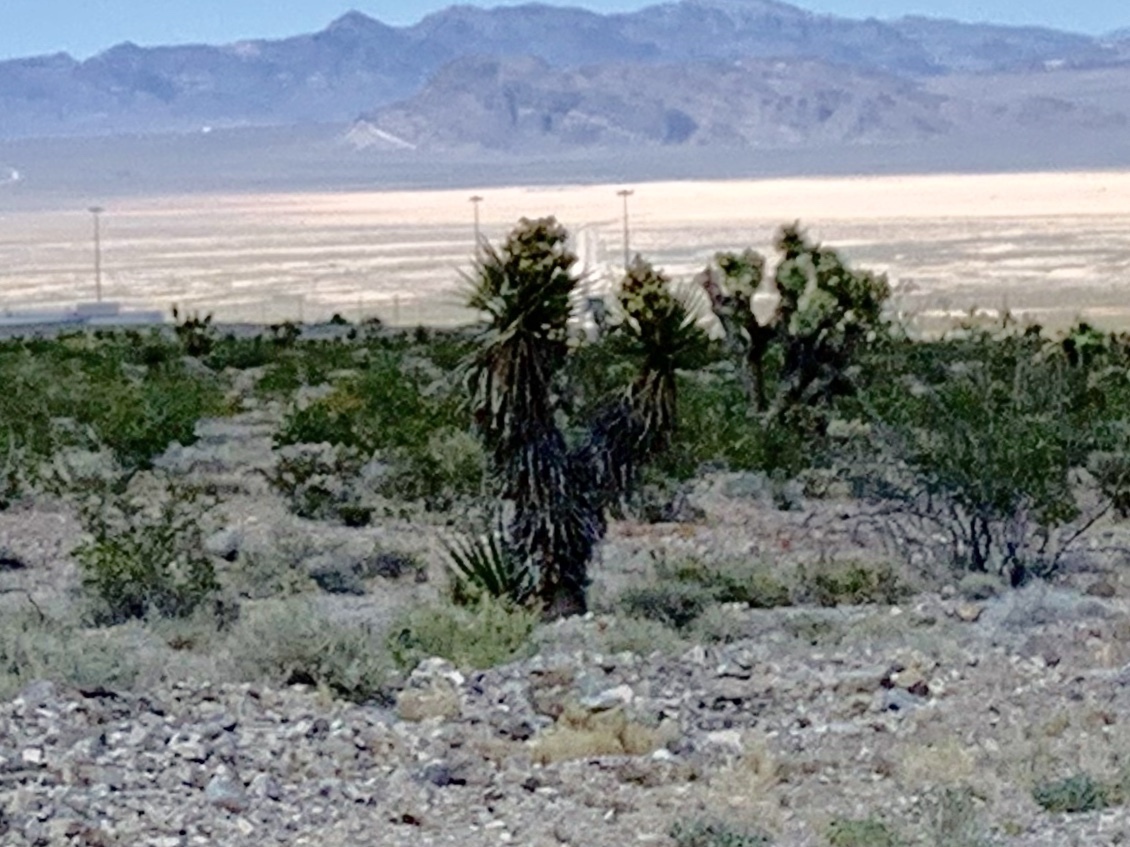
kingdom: Plantae
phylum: Tracheophyta
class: Liliopsida
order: Asparagales
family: Asparagaceae
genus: Yucca
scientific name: Yucca schidigera
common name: Mojave yucca
